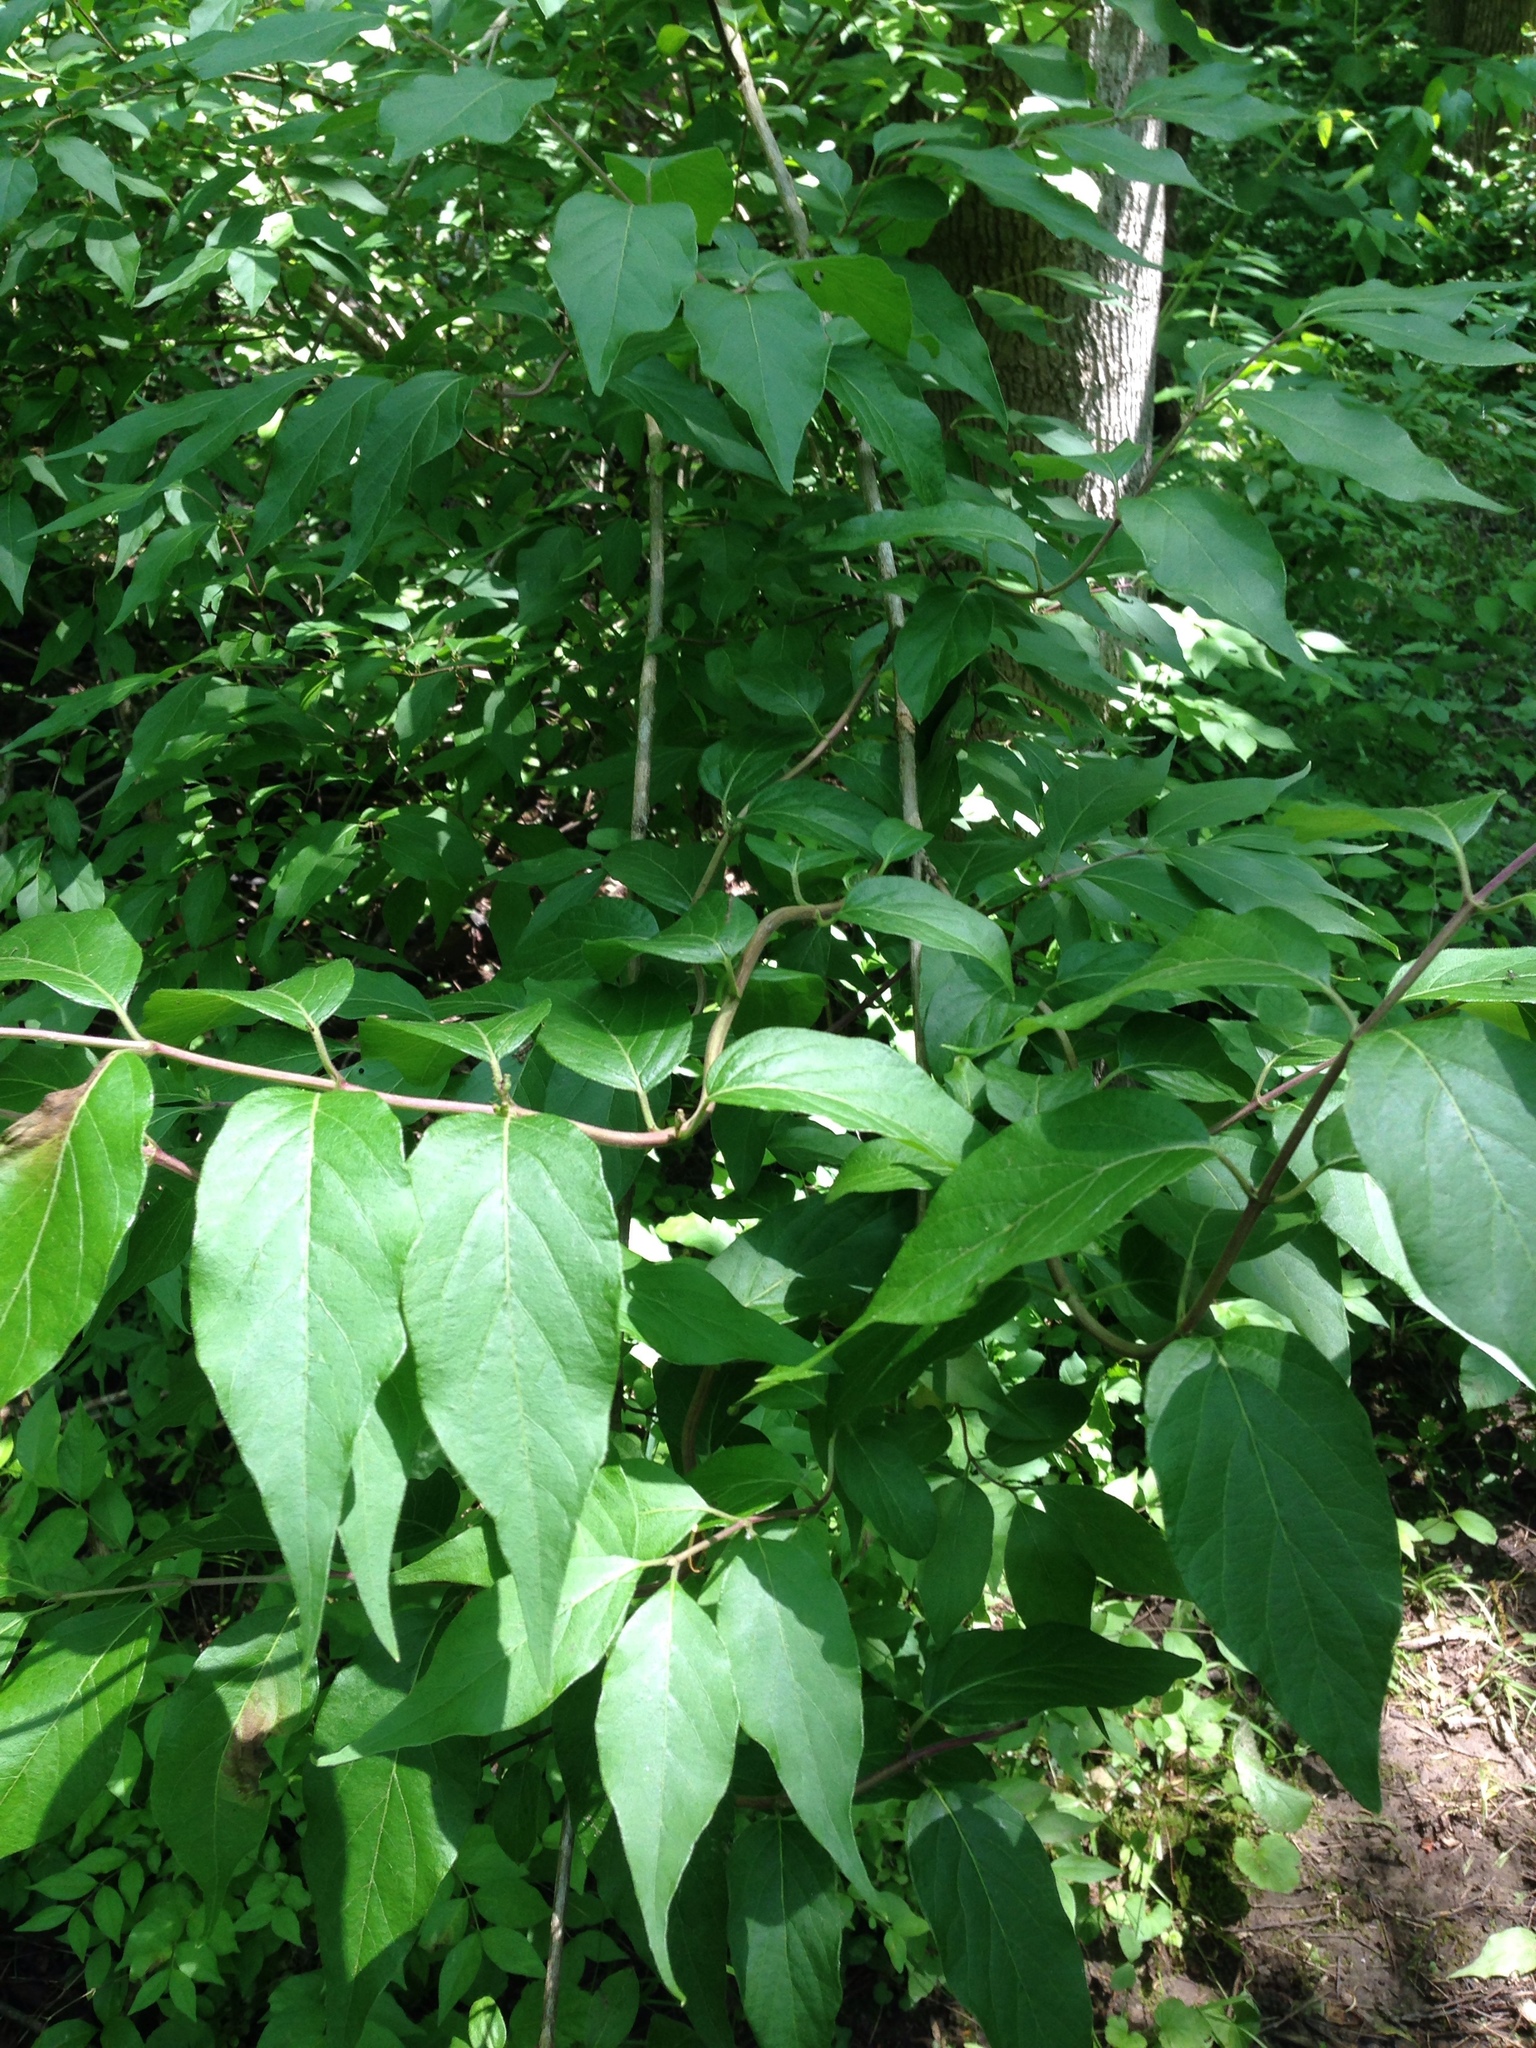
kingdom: Plantae
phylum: Tracheophyta
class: Magnoliopsida
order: Dipsacales
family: Caprifoliaceae
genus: Lonicera
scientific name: Lonicera maackii
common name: Amur honeysuckle
